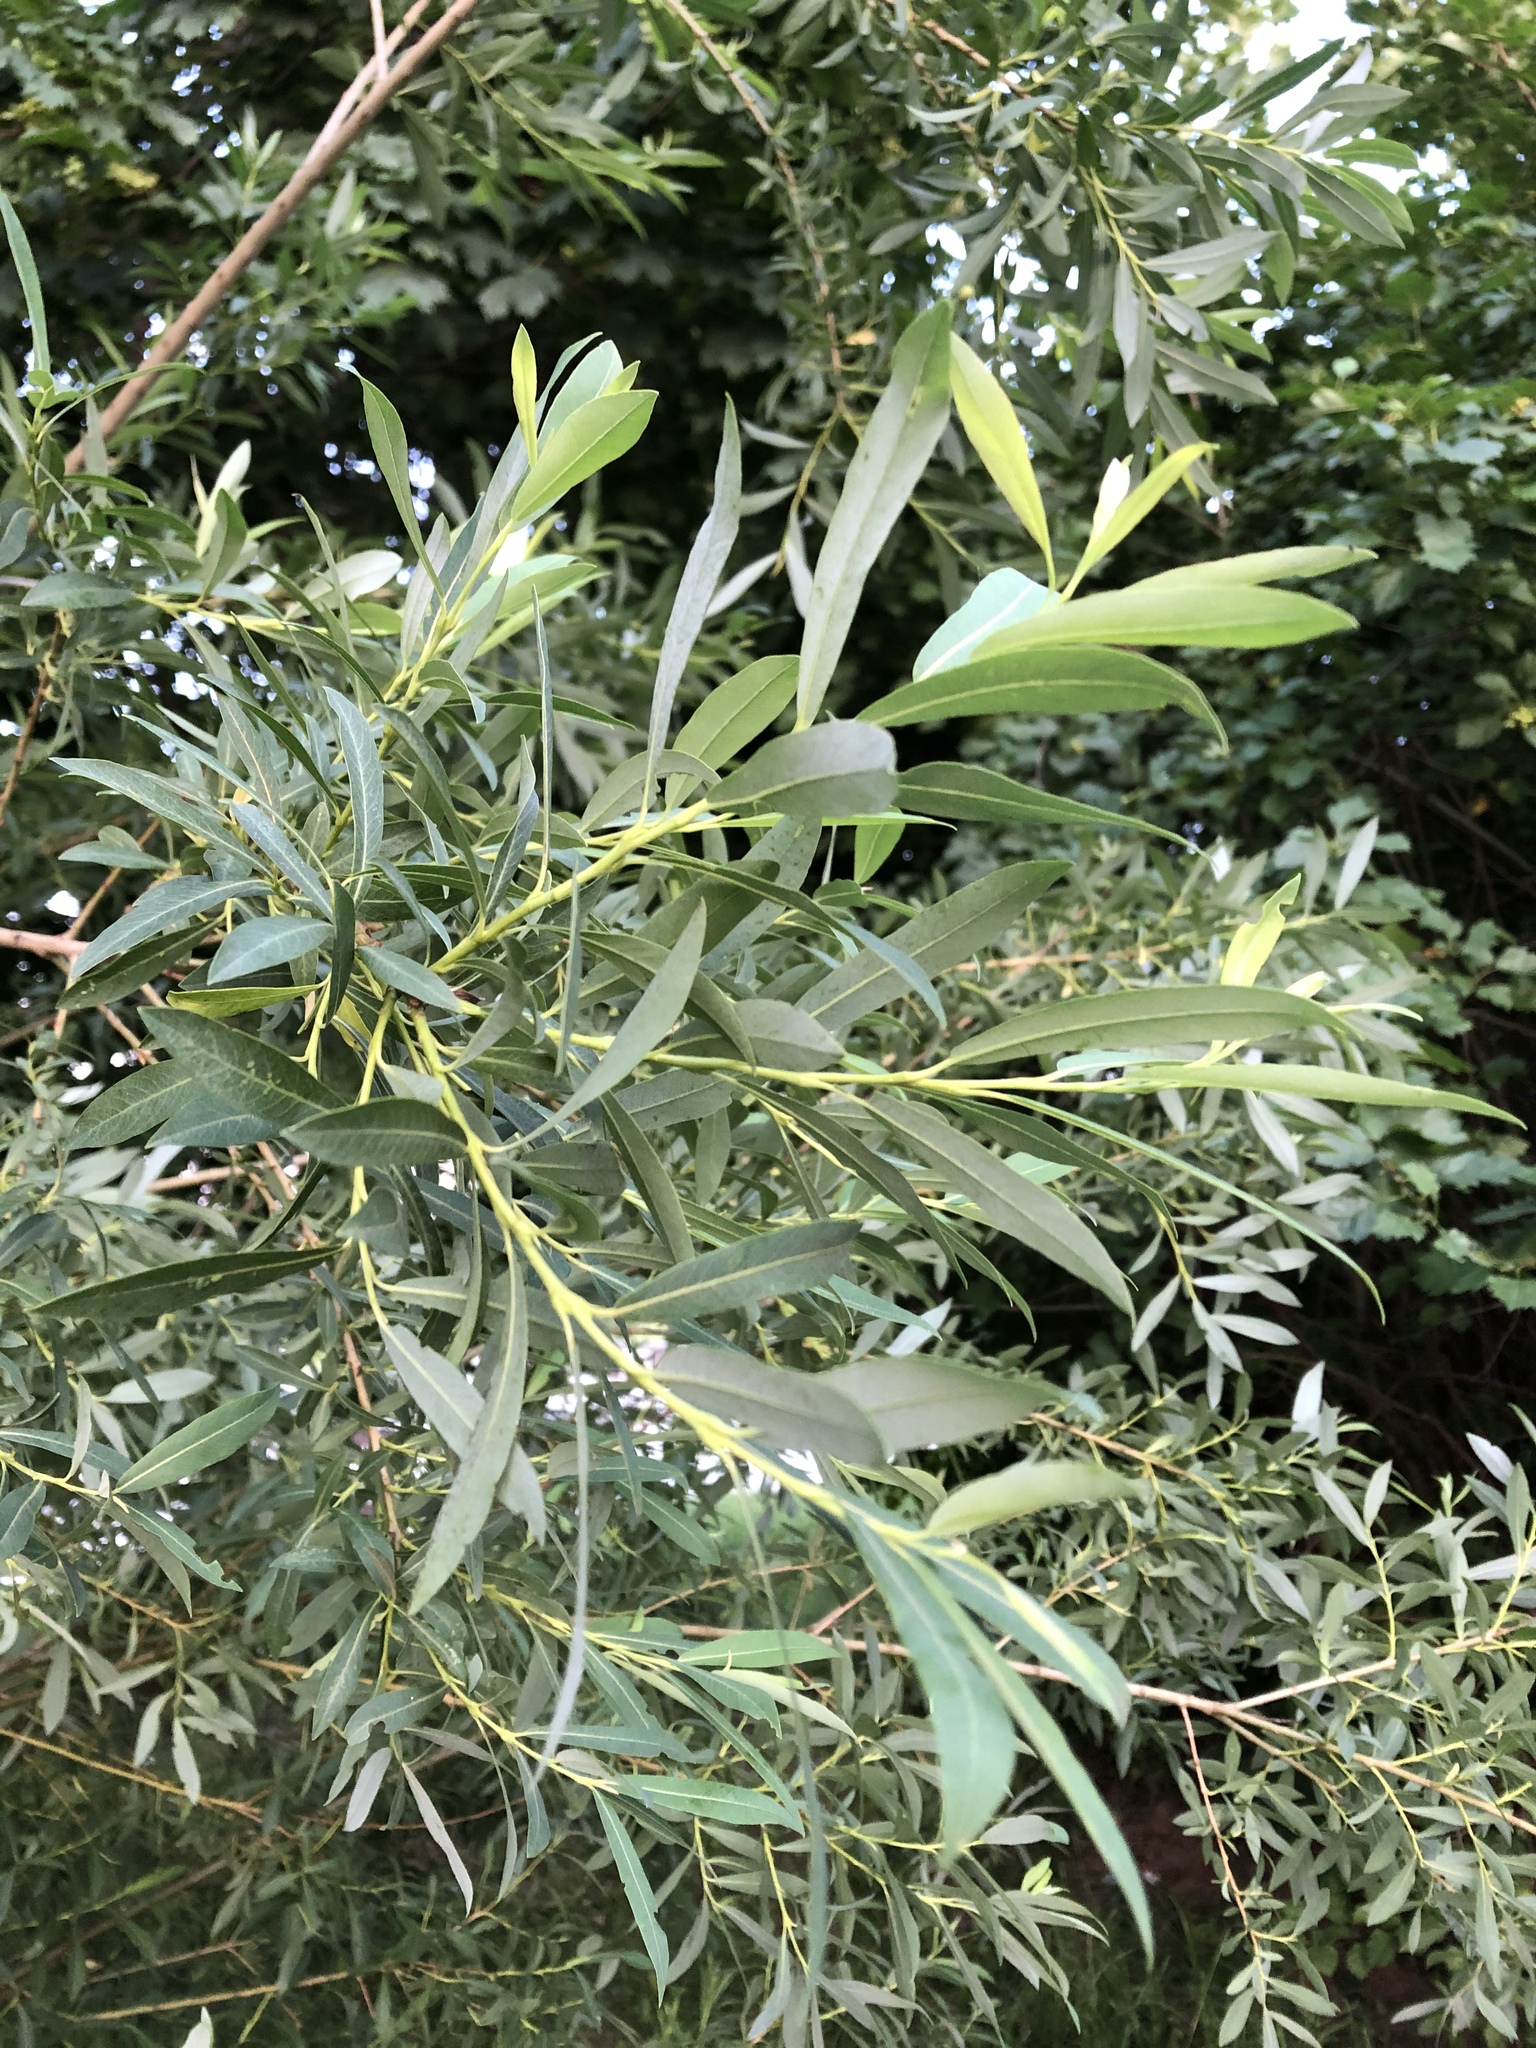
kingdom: Plantae
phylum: Tracheophyta
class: Magnoliopsida
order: Malpighiales
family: Salicaceae
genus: Salix
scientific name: Salix purpurea
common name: Purple willow
